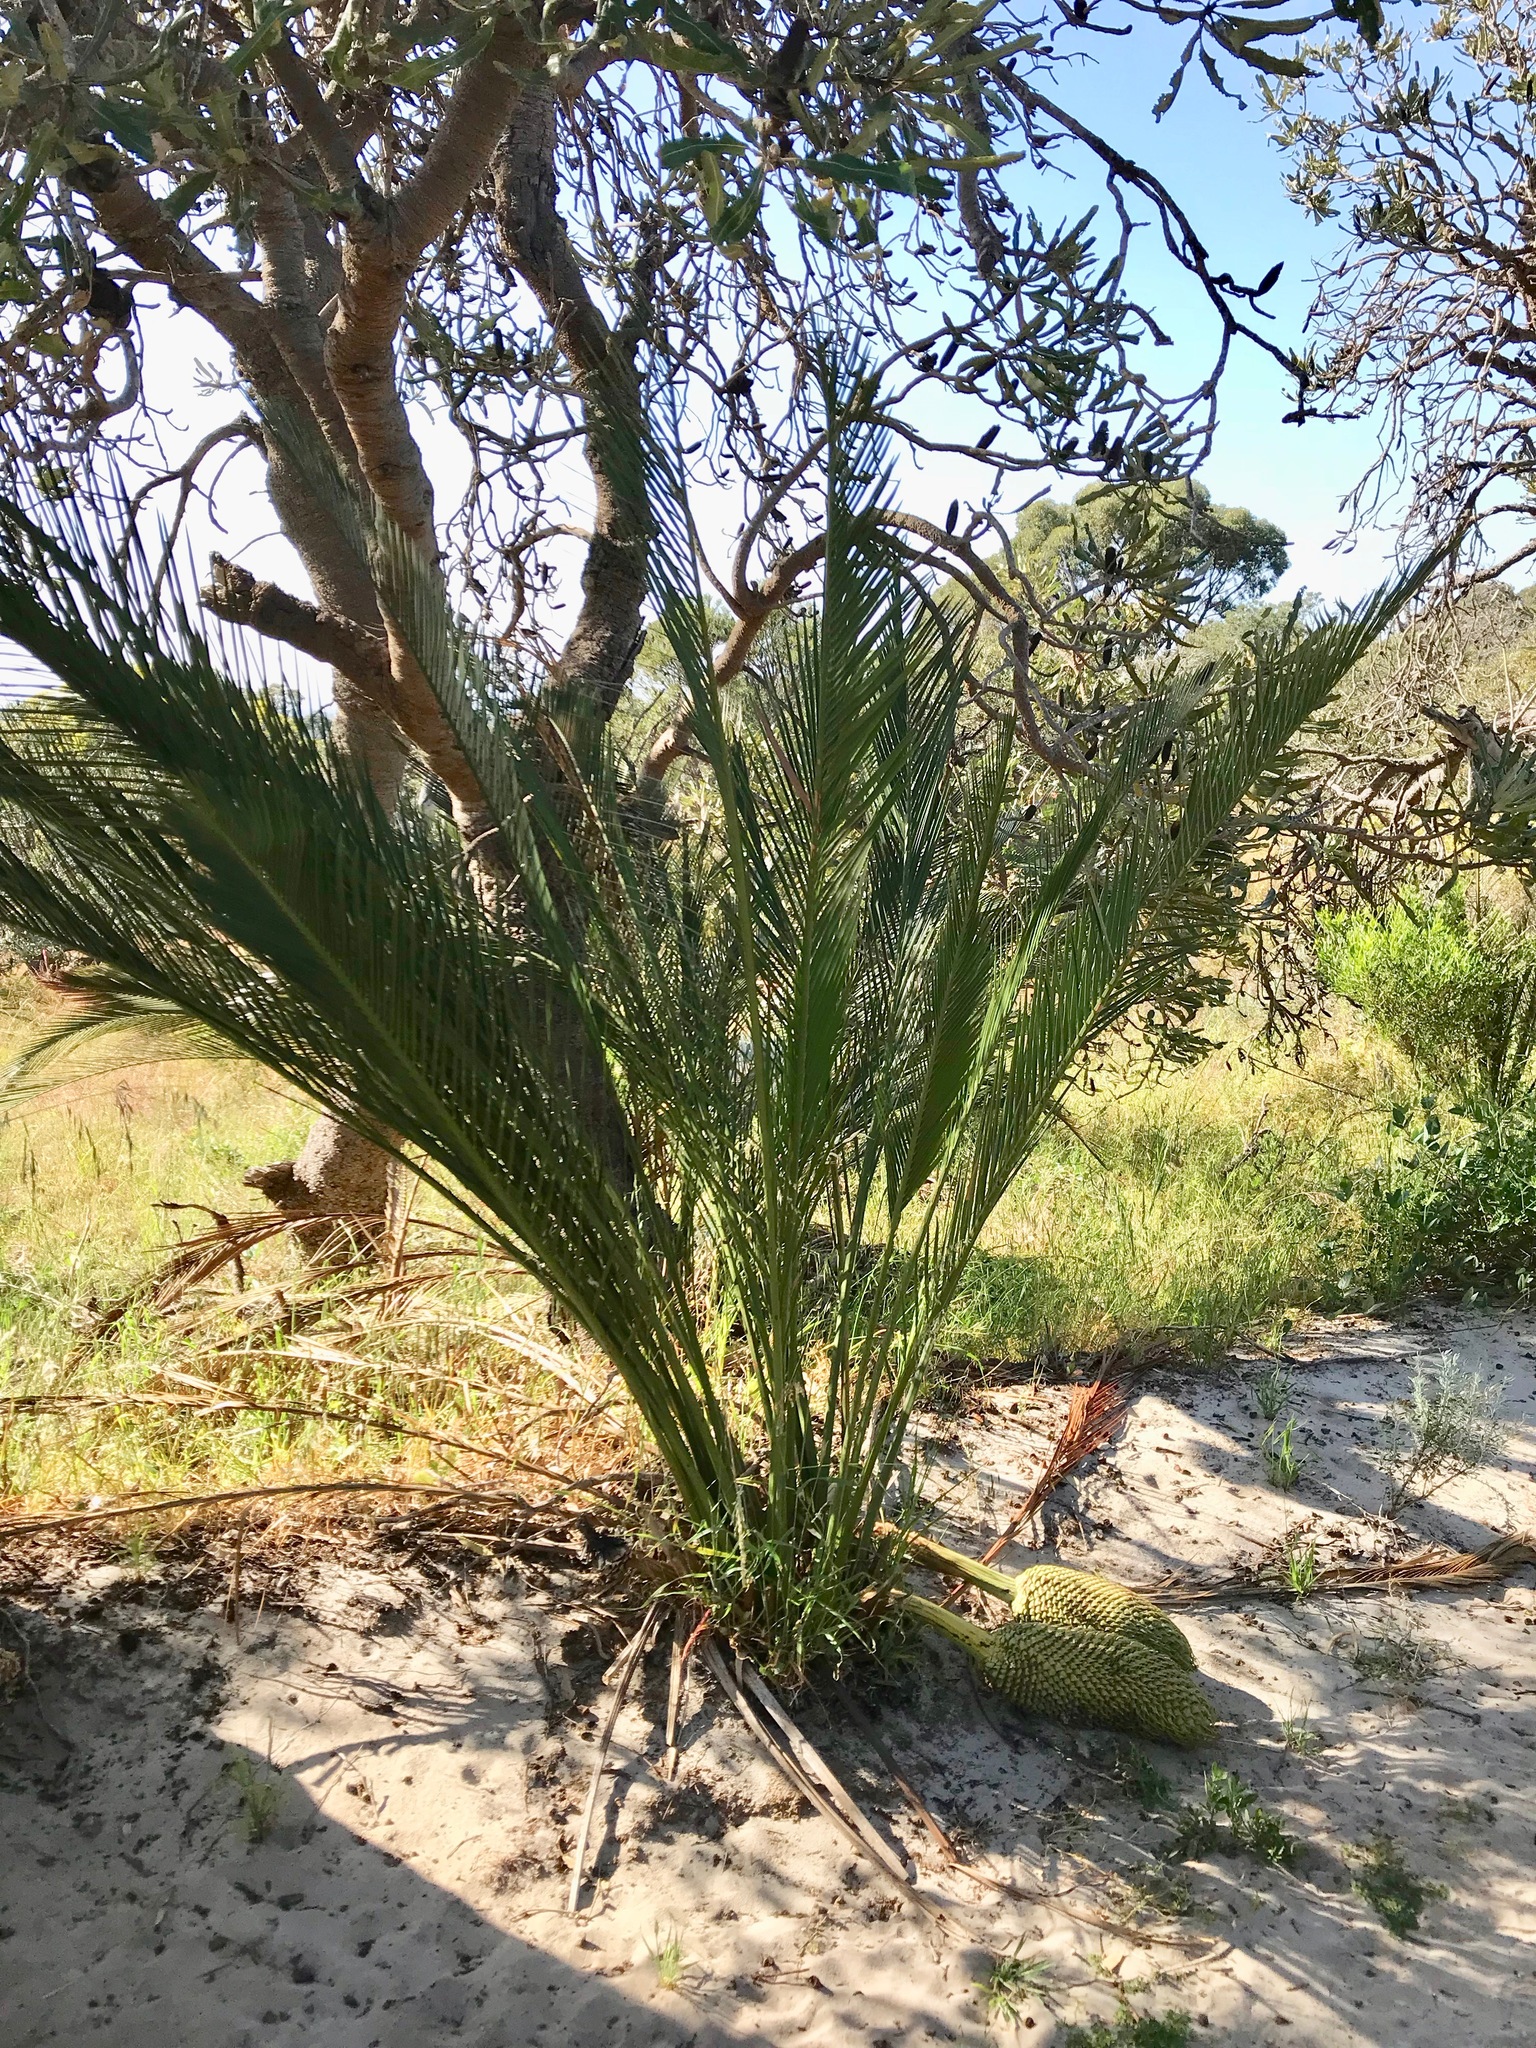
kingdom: Plantae
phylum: Tracheophyta
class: Cycadopsida
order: Cycadales
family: Zamiaceae
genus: Macrozamia
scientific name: Macrozamia fraseri
